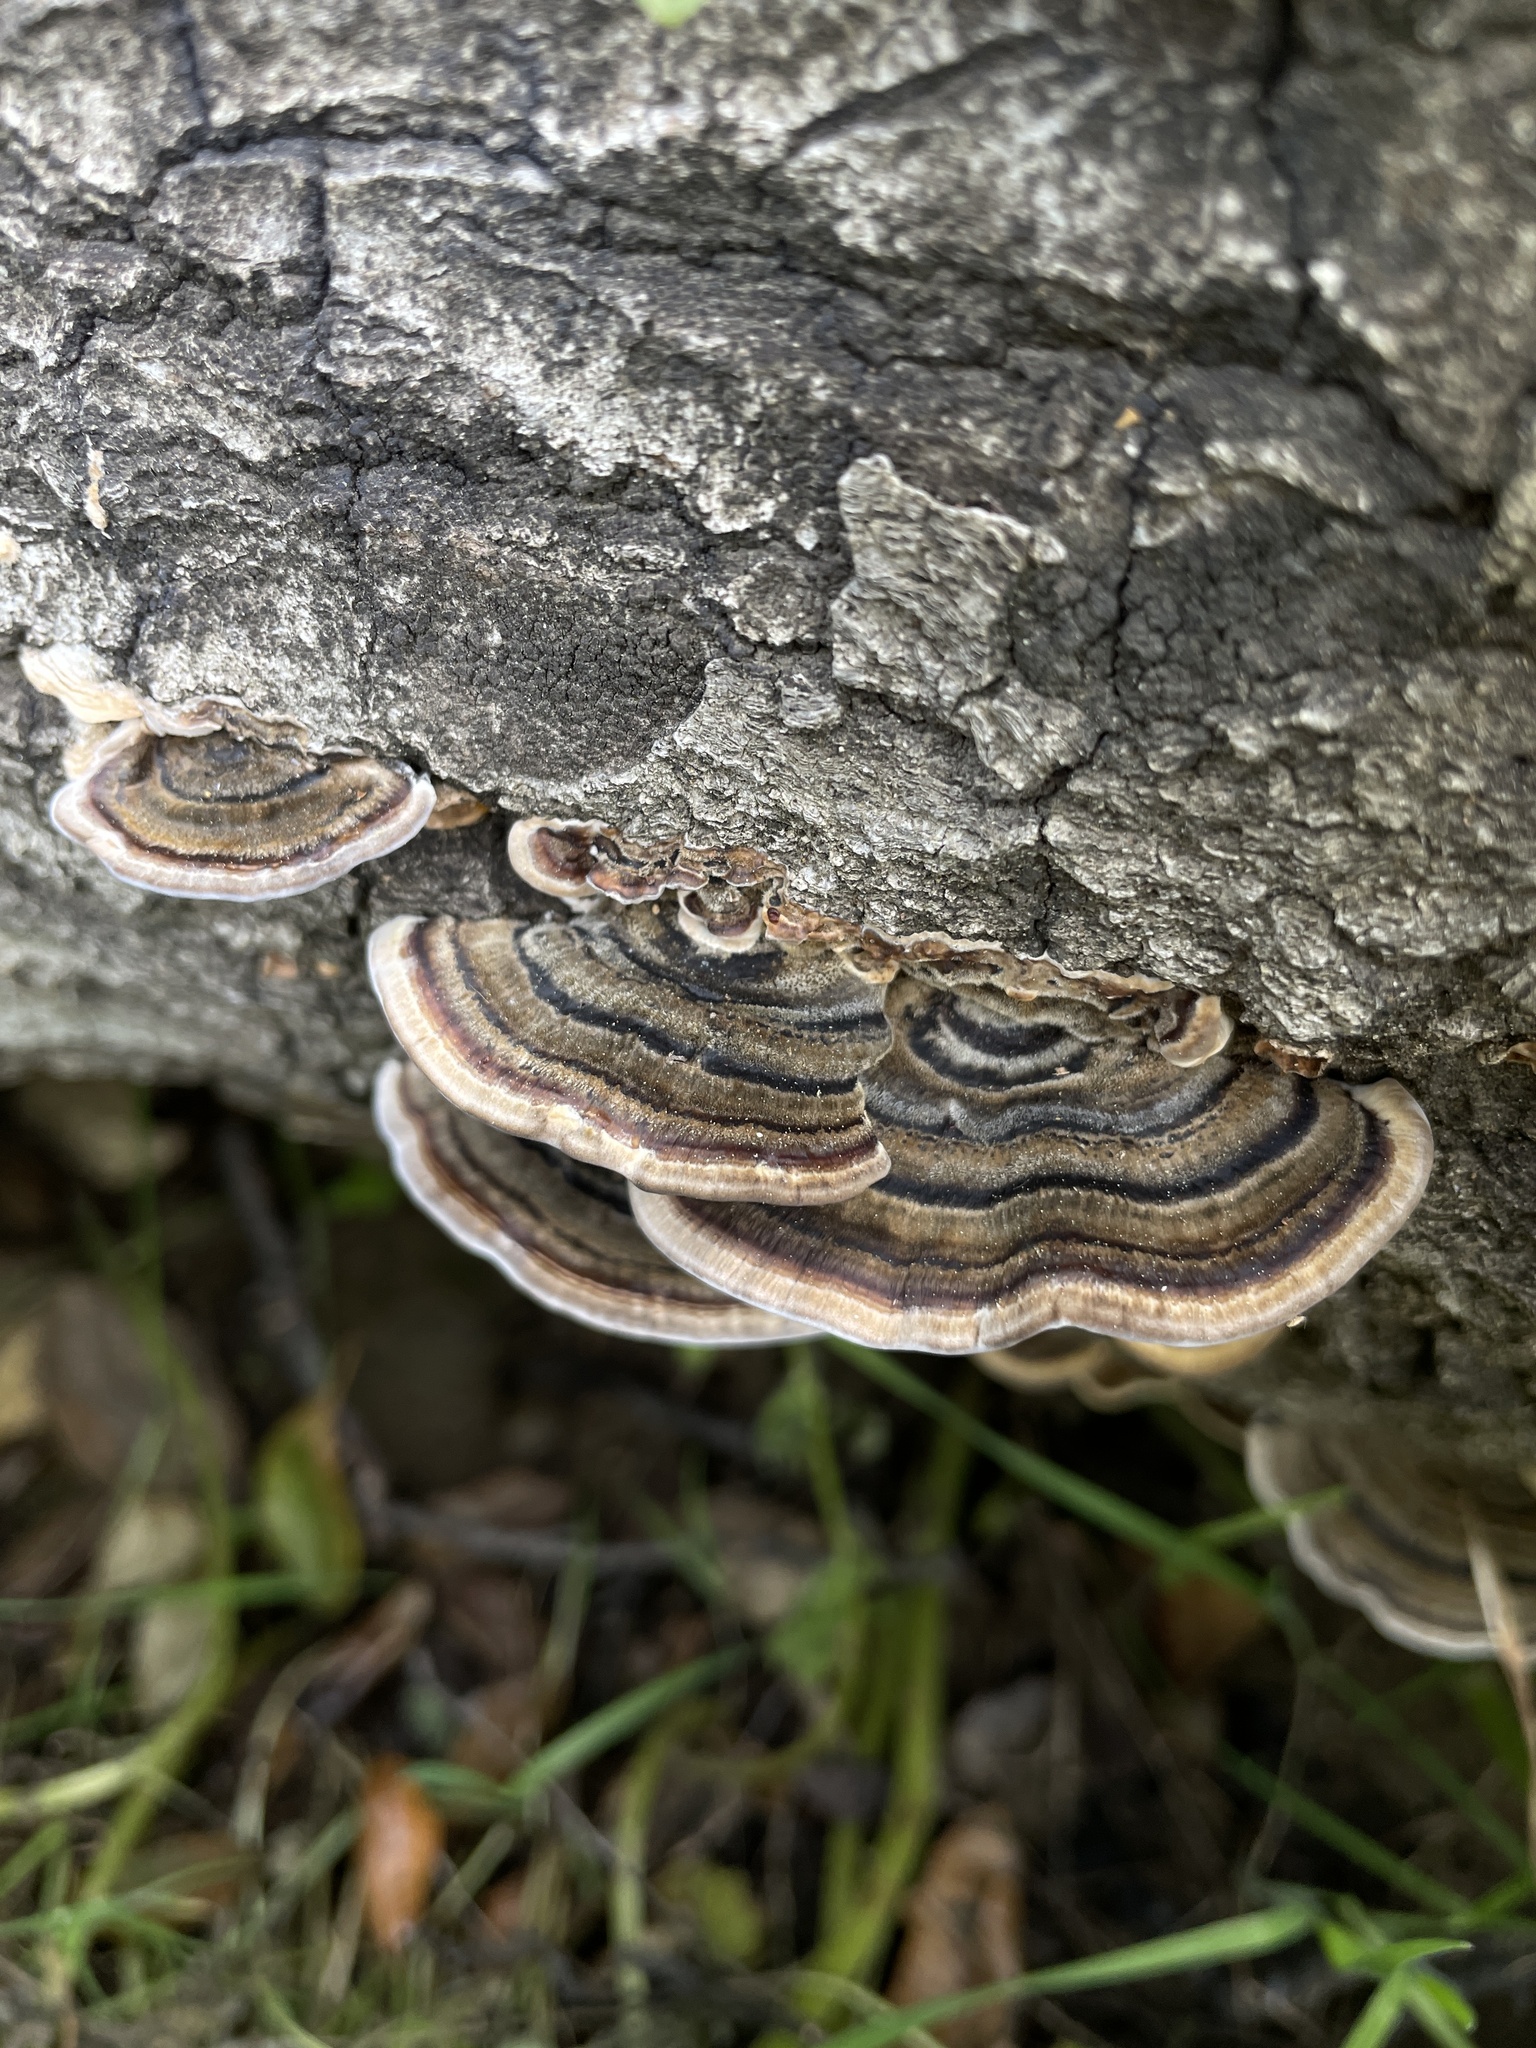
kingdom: Fungi
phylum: Basidiomycota
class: Agaricomycetes
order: Polyporales
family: Polyporaceae
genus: Trametes
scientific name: Trametes versicolor
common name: Turkeytail
